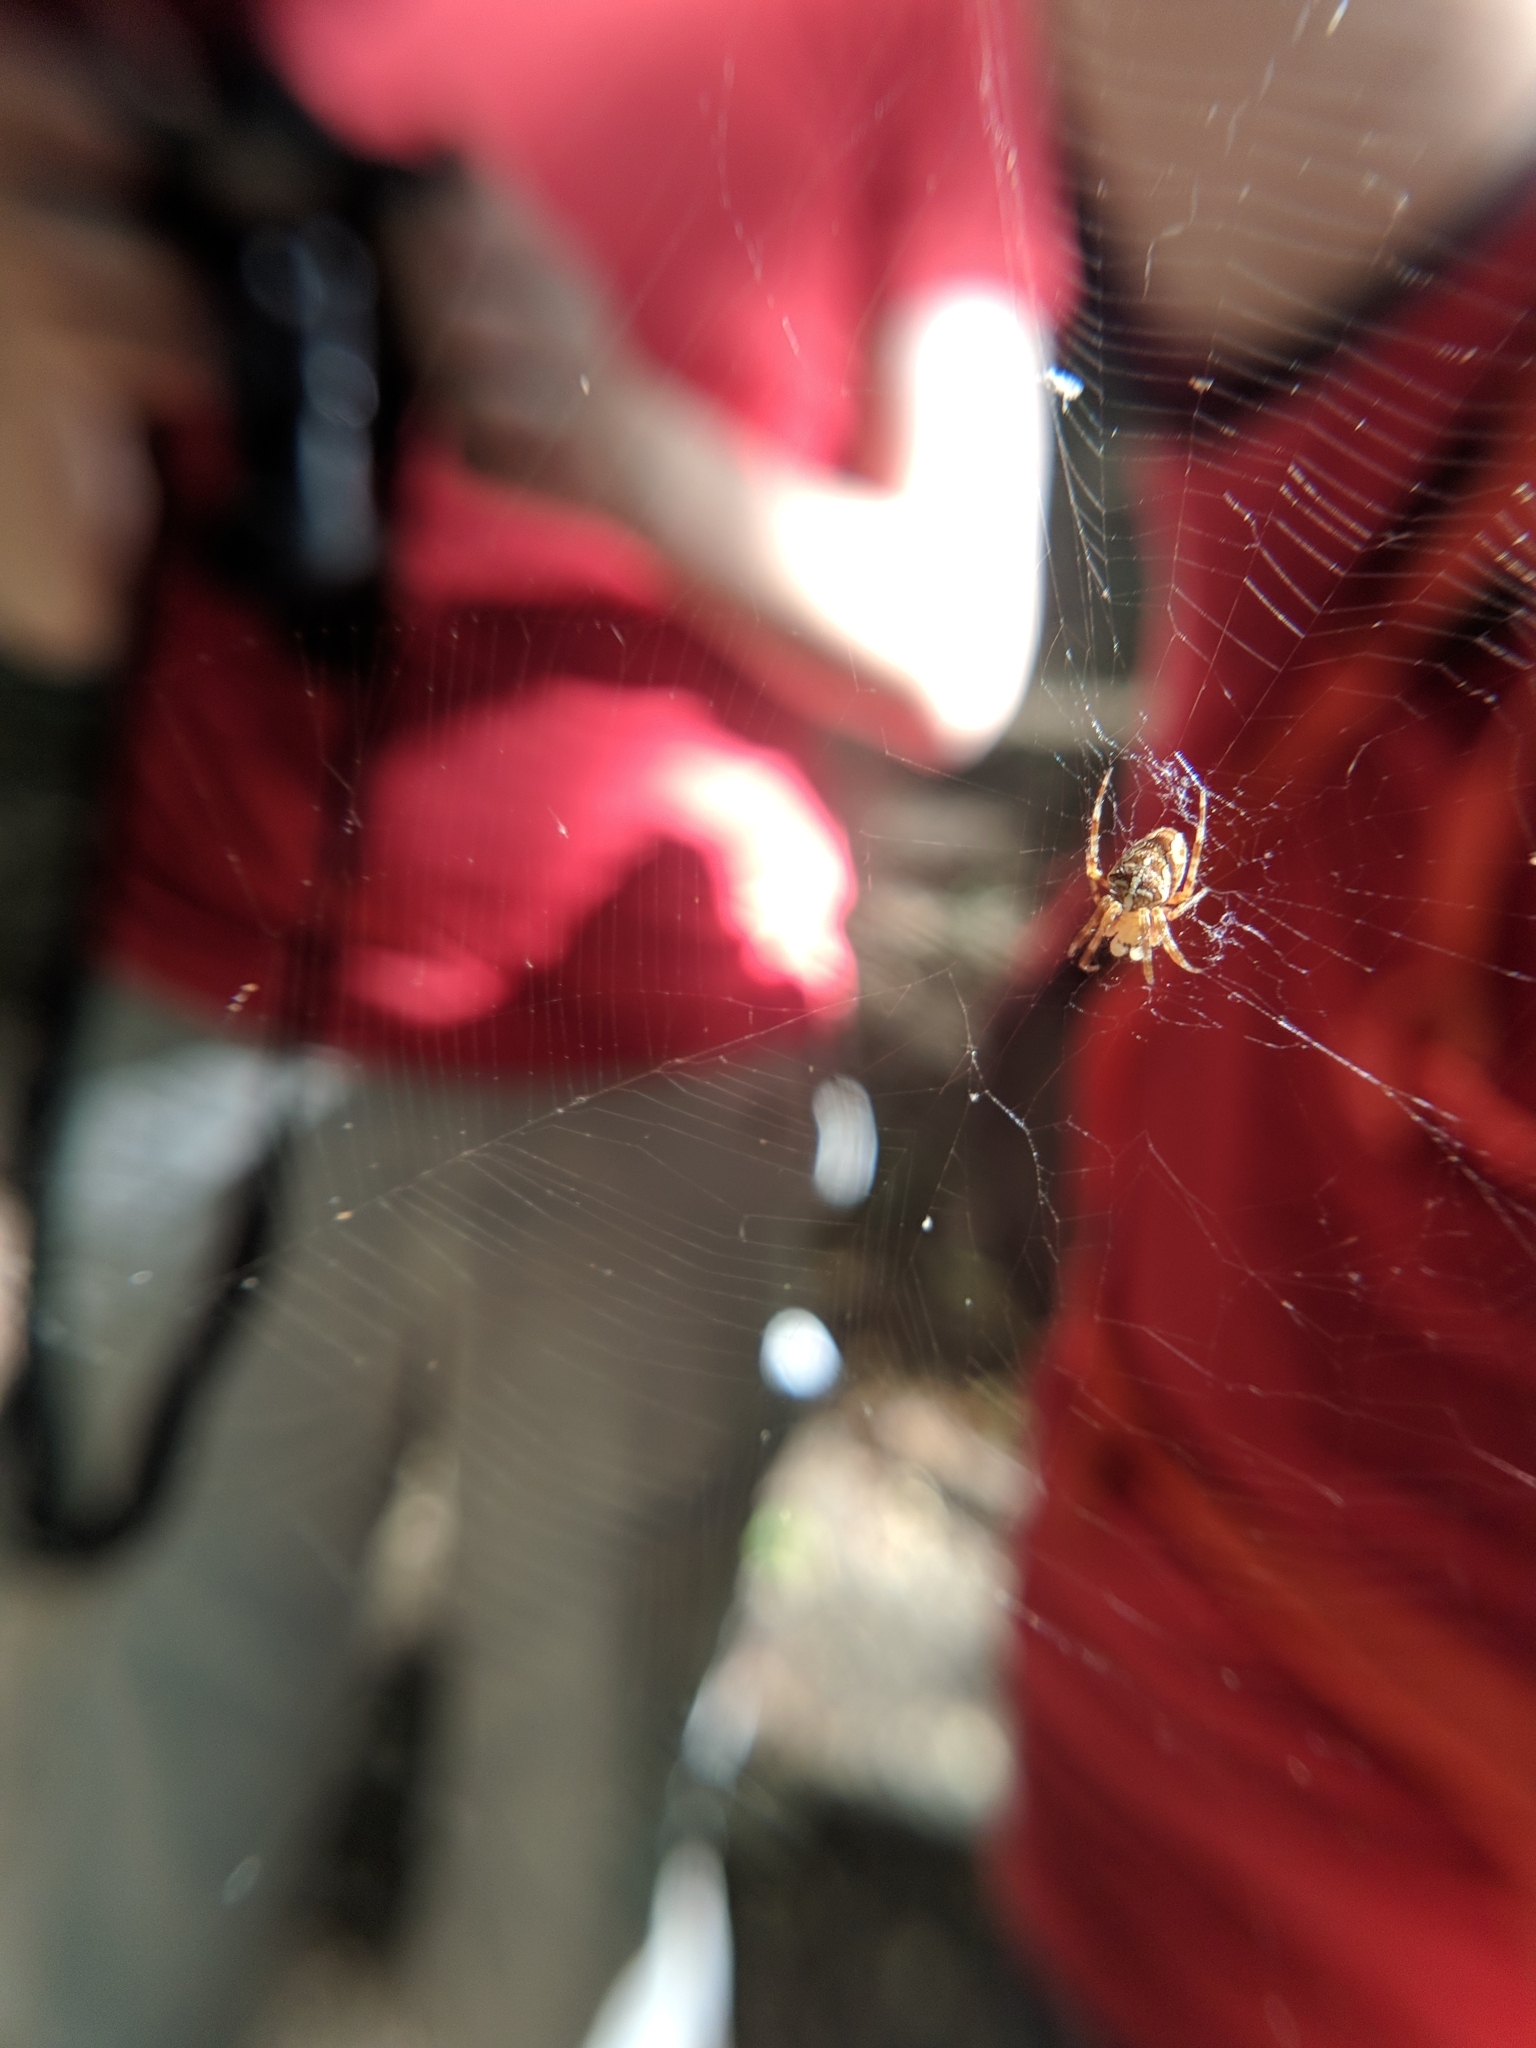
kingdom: Animalia
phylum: Arthropoda
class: Arachnida
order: Araneae
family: Araneidae
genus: Araneus
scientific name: Araneus diadematus
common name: Cross orbweaver
